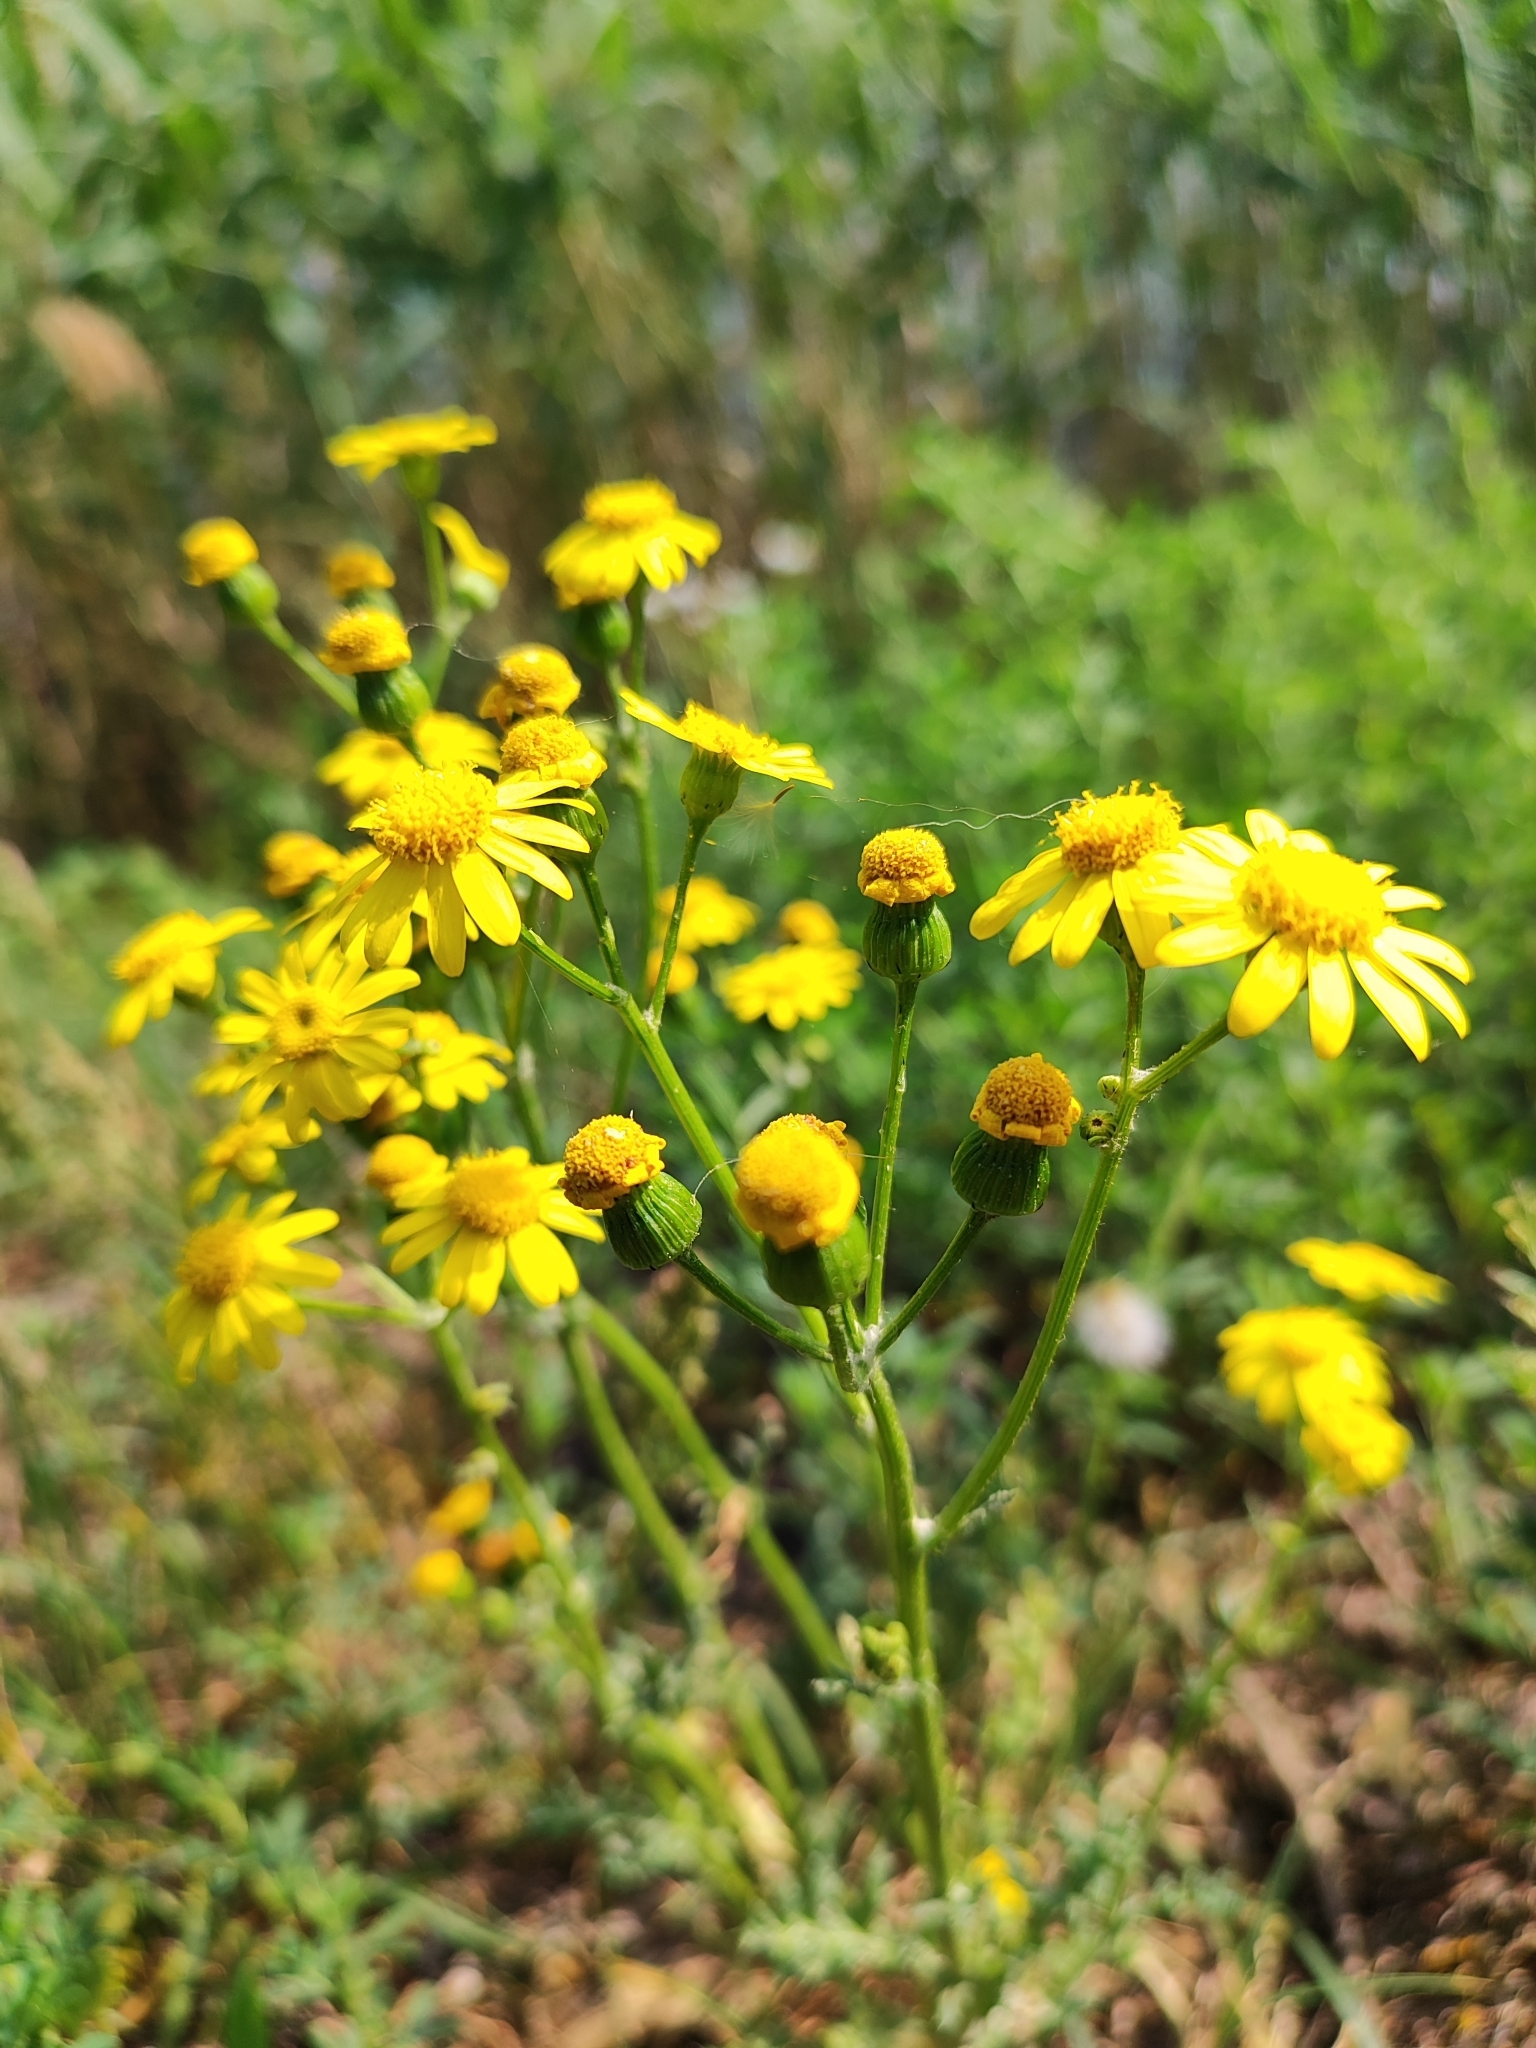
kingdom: Plantae
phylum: Tracheophyta
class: Magnoliopsida
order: Asterales
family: Asteraceae
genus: Senecio
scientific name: Senecio vernalis
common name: Eastern groundsel
